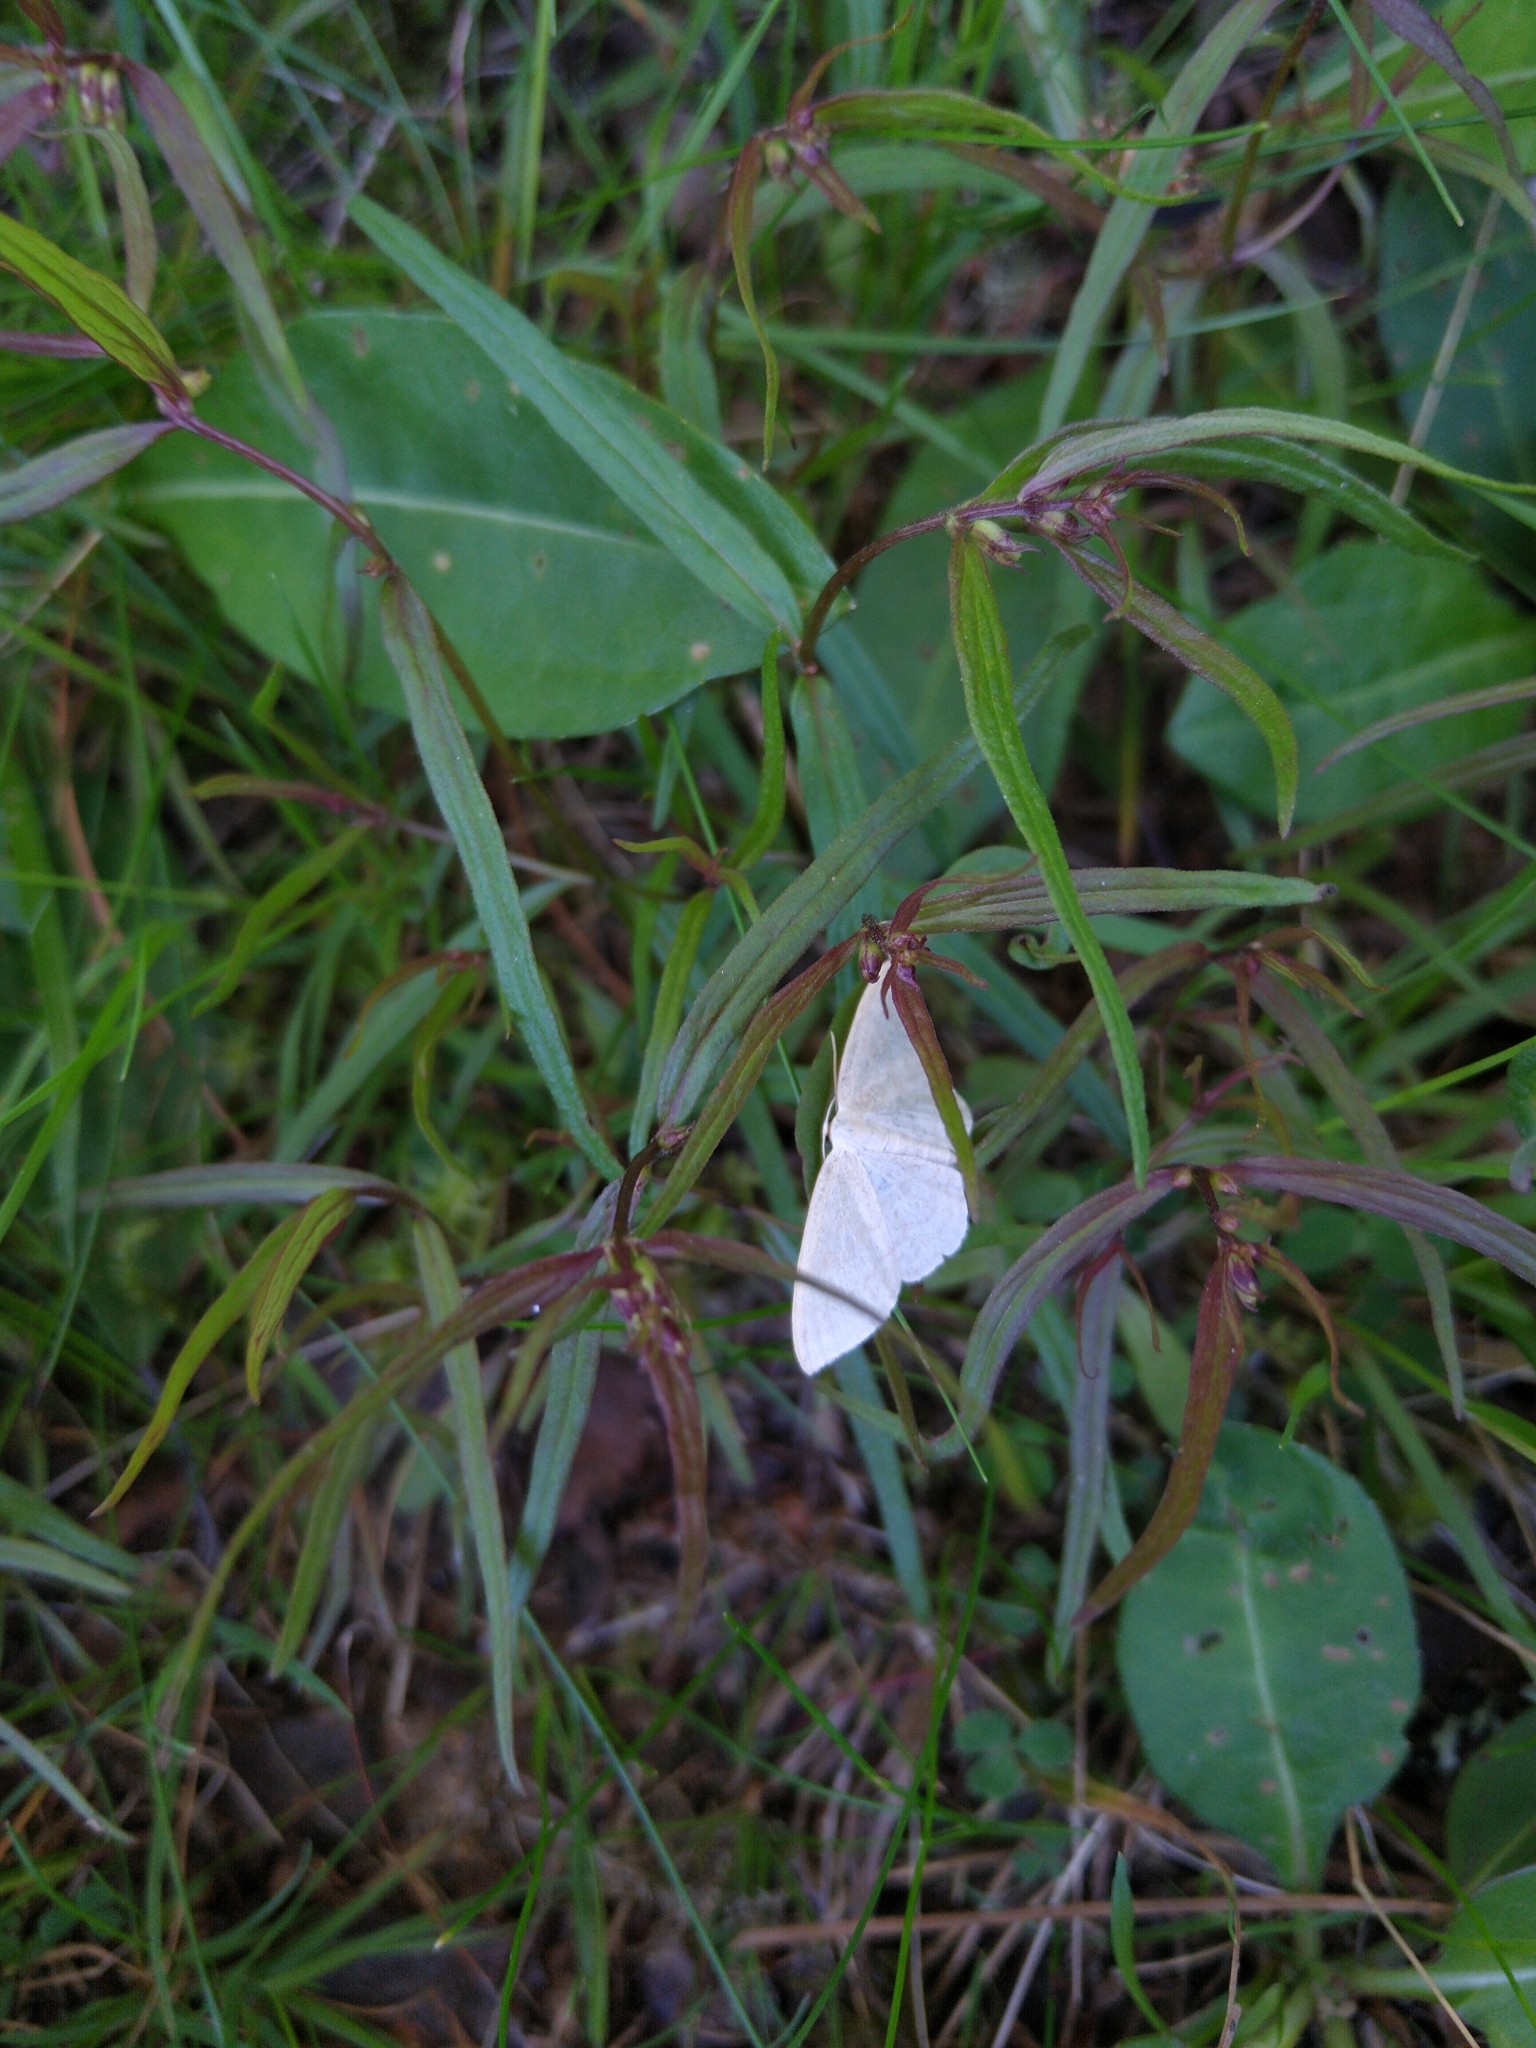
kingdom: Animalia
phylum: Arthropoda
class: Insecta
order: Lepidoptera
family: Geometridae
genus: Scopula
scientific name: Scopula floslactata
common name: Cream wave
